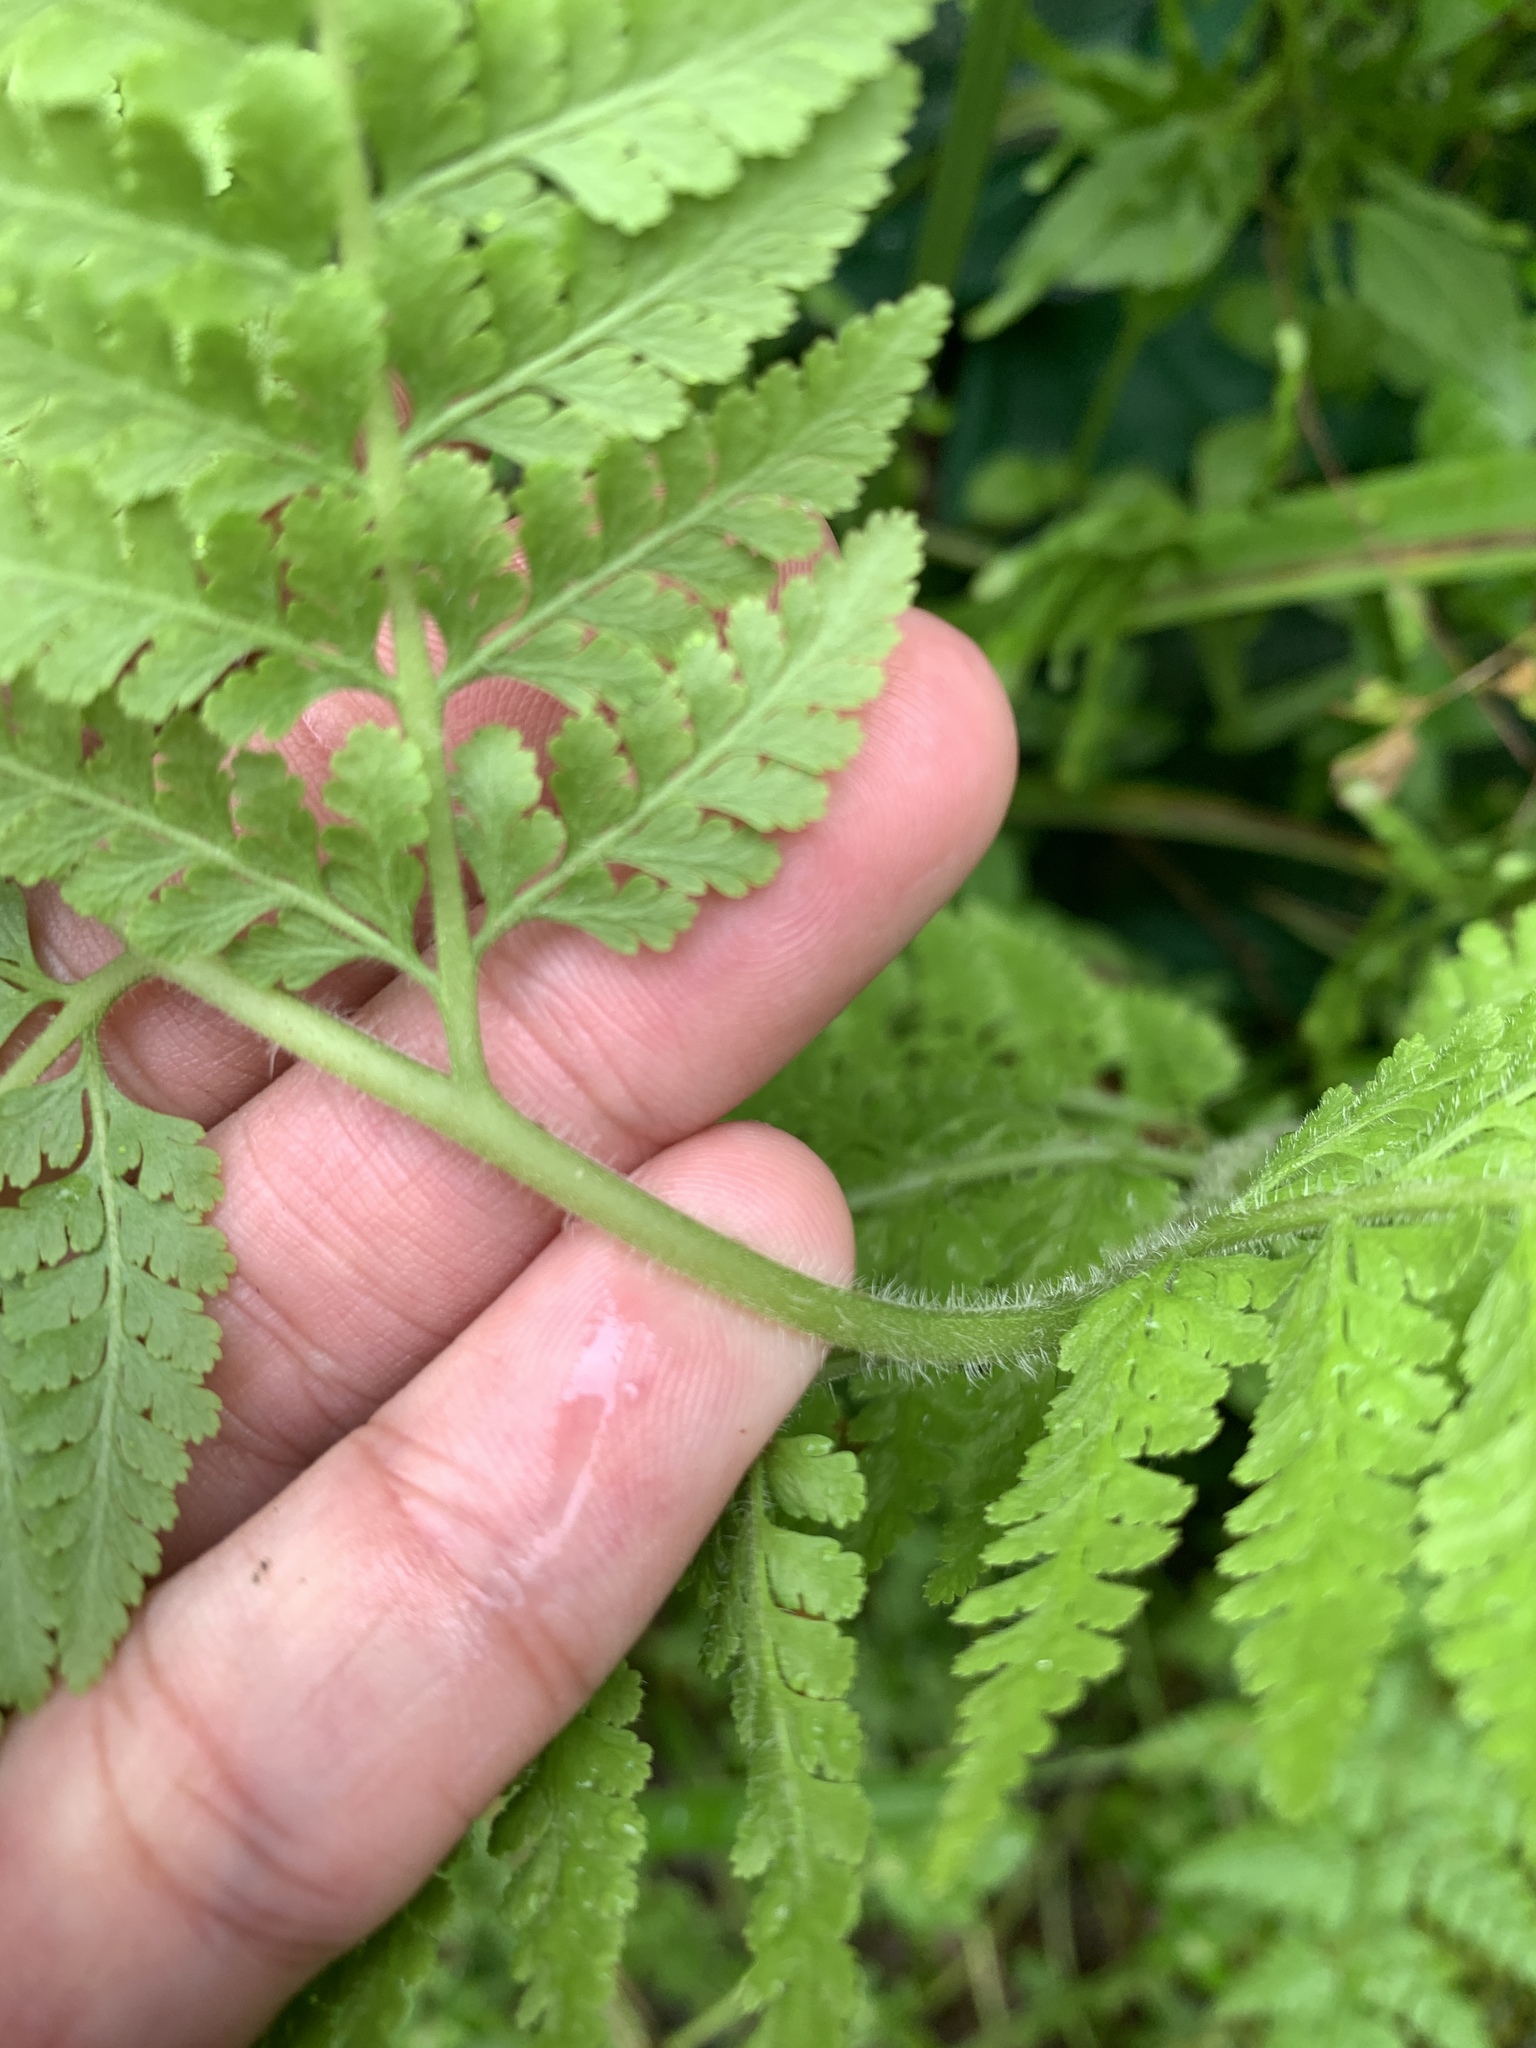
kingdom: Plantae
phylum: Tracheophyta
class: Polypodiopsida
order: Polypodiales
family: Dennstaedtiaceae
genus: Microlepia
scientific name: Microlepia speluncae
